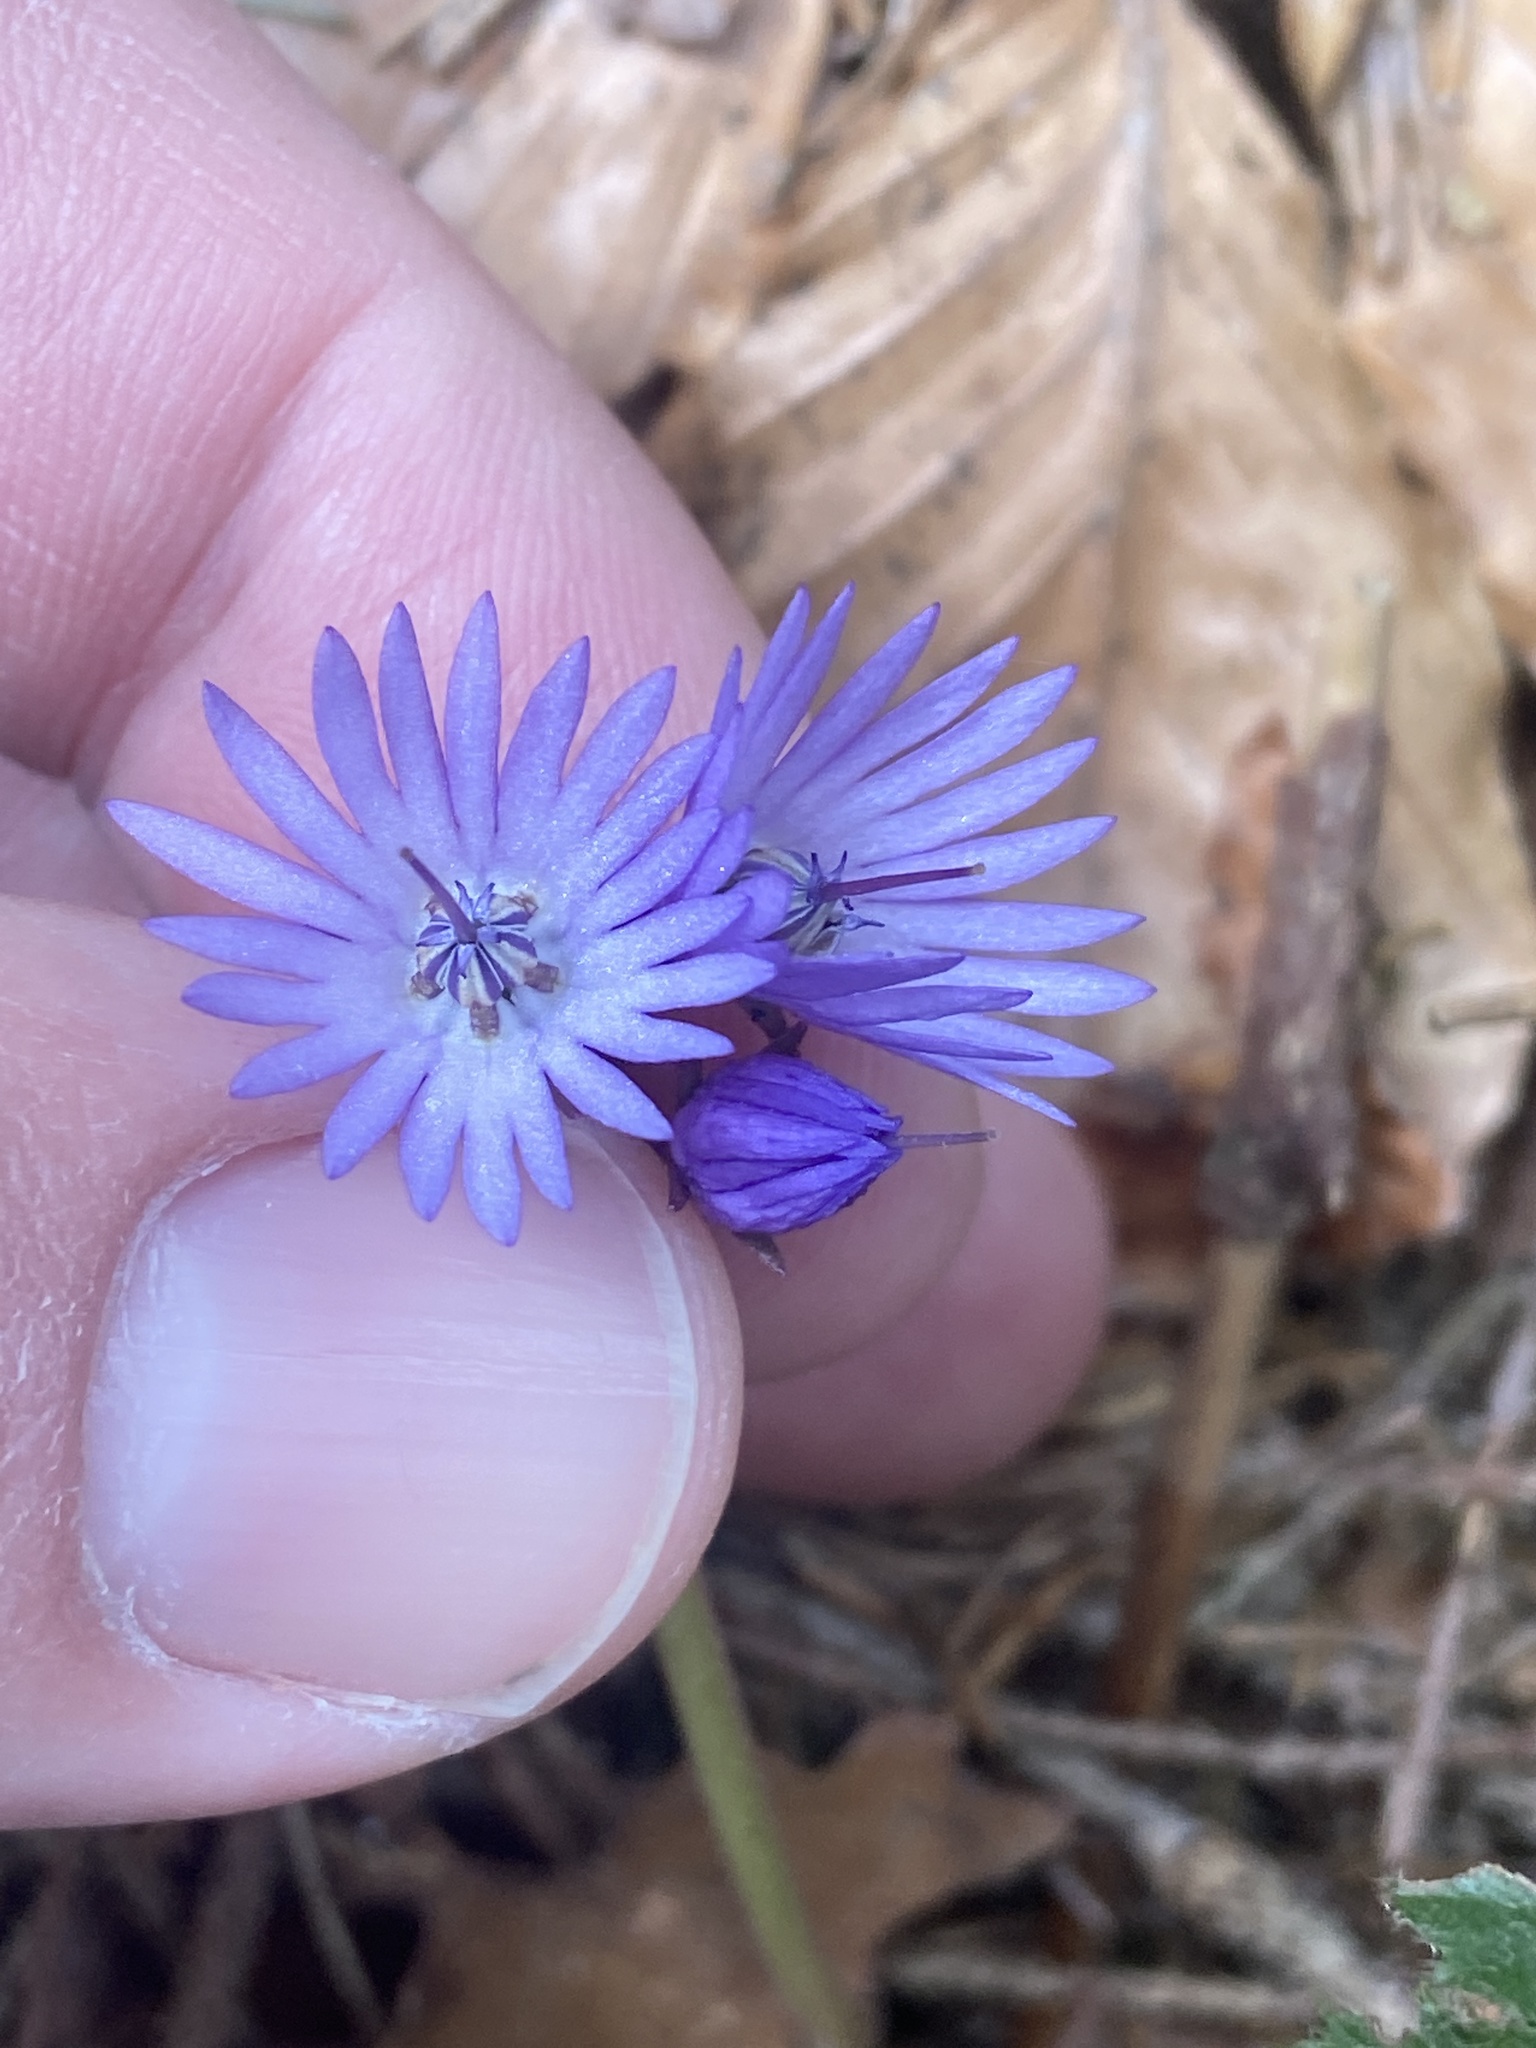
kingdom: Plantae
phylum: Tracheophyta
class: Magnoliopsida
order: Ericales
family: Primulaceae
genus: Soldanella
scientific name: Soldanella montana
